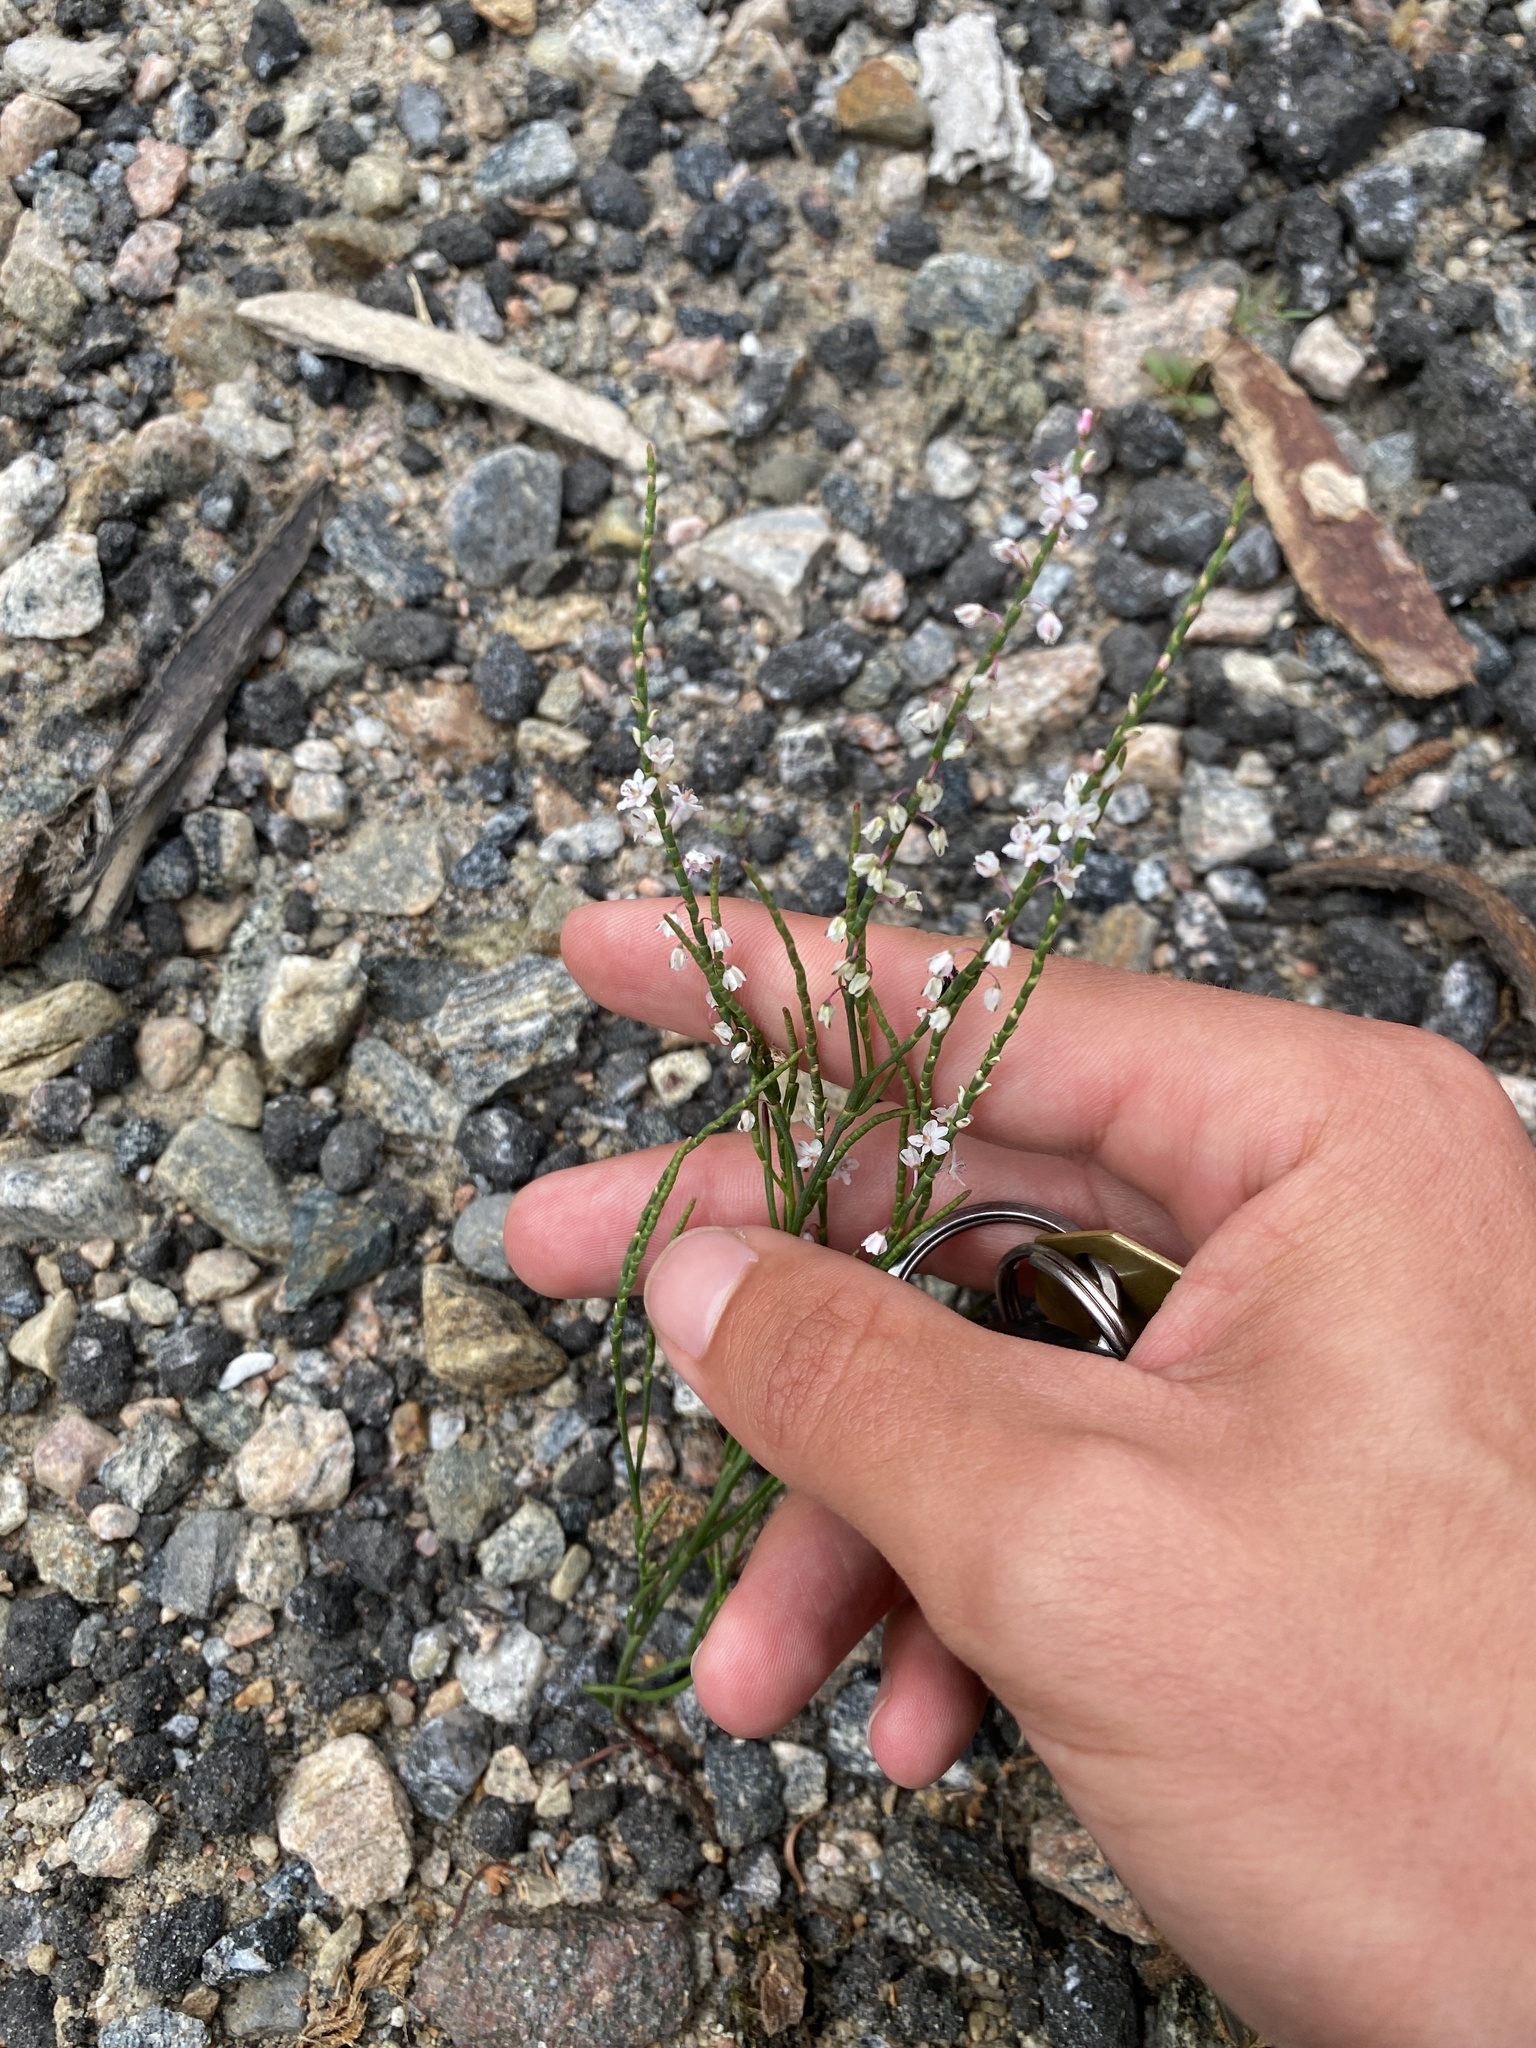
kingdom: Plantae
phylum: Tracheophyta
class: Magnoliopsida
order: Caryophyllales
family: Polygonaceae
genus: Polygonella
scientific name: Polygonella articulata
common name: Coastal jointweed
